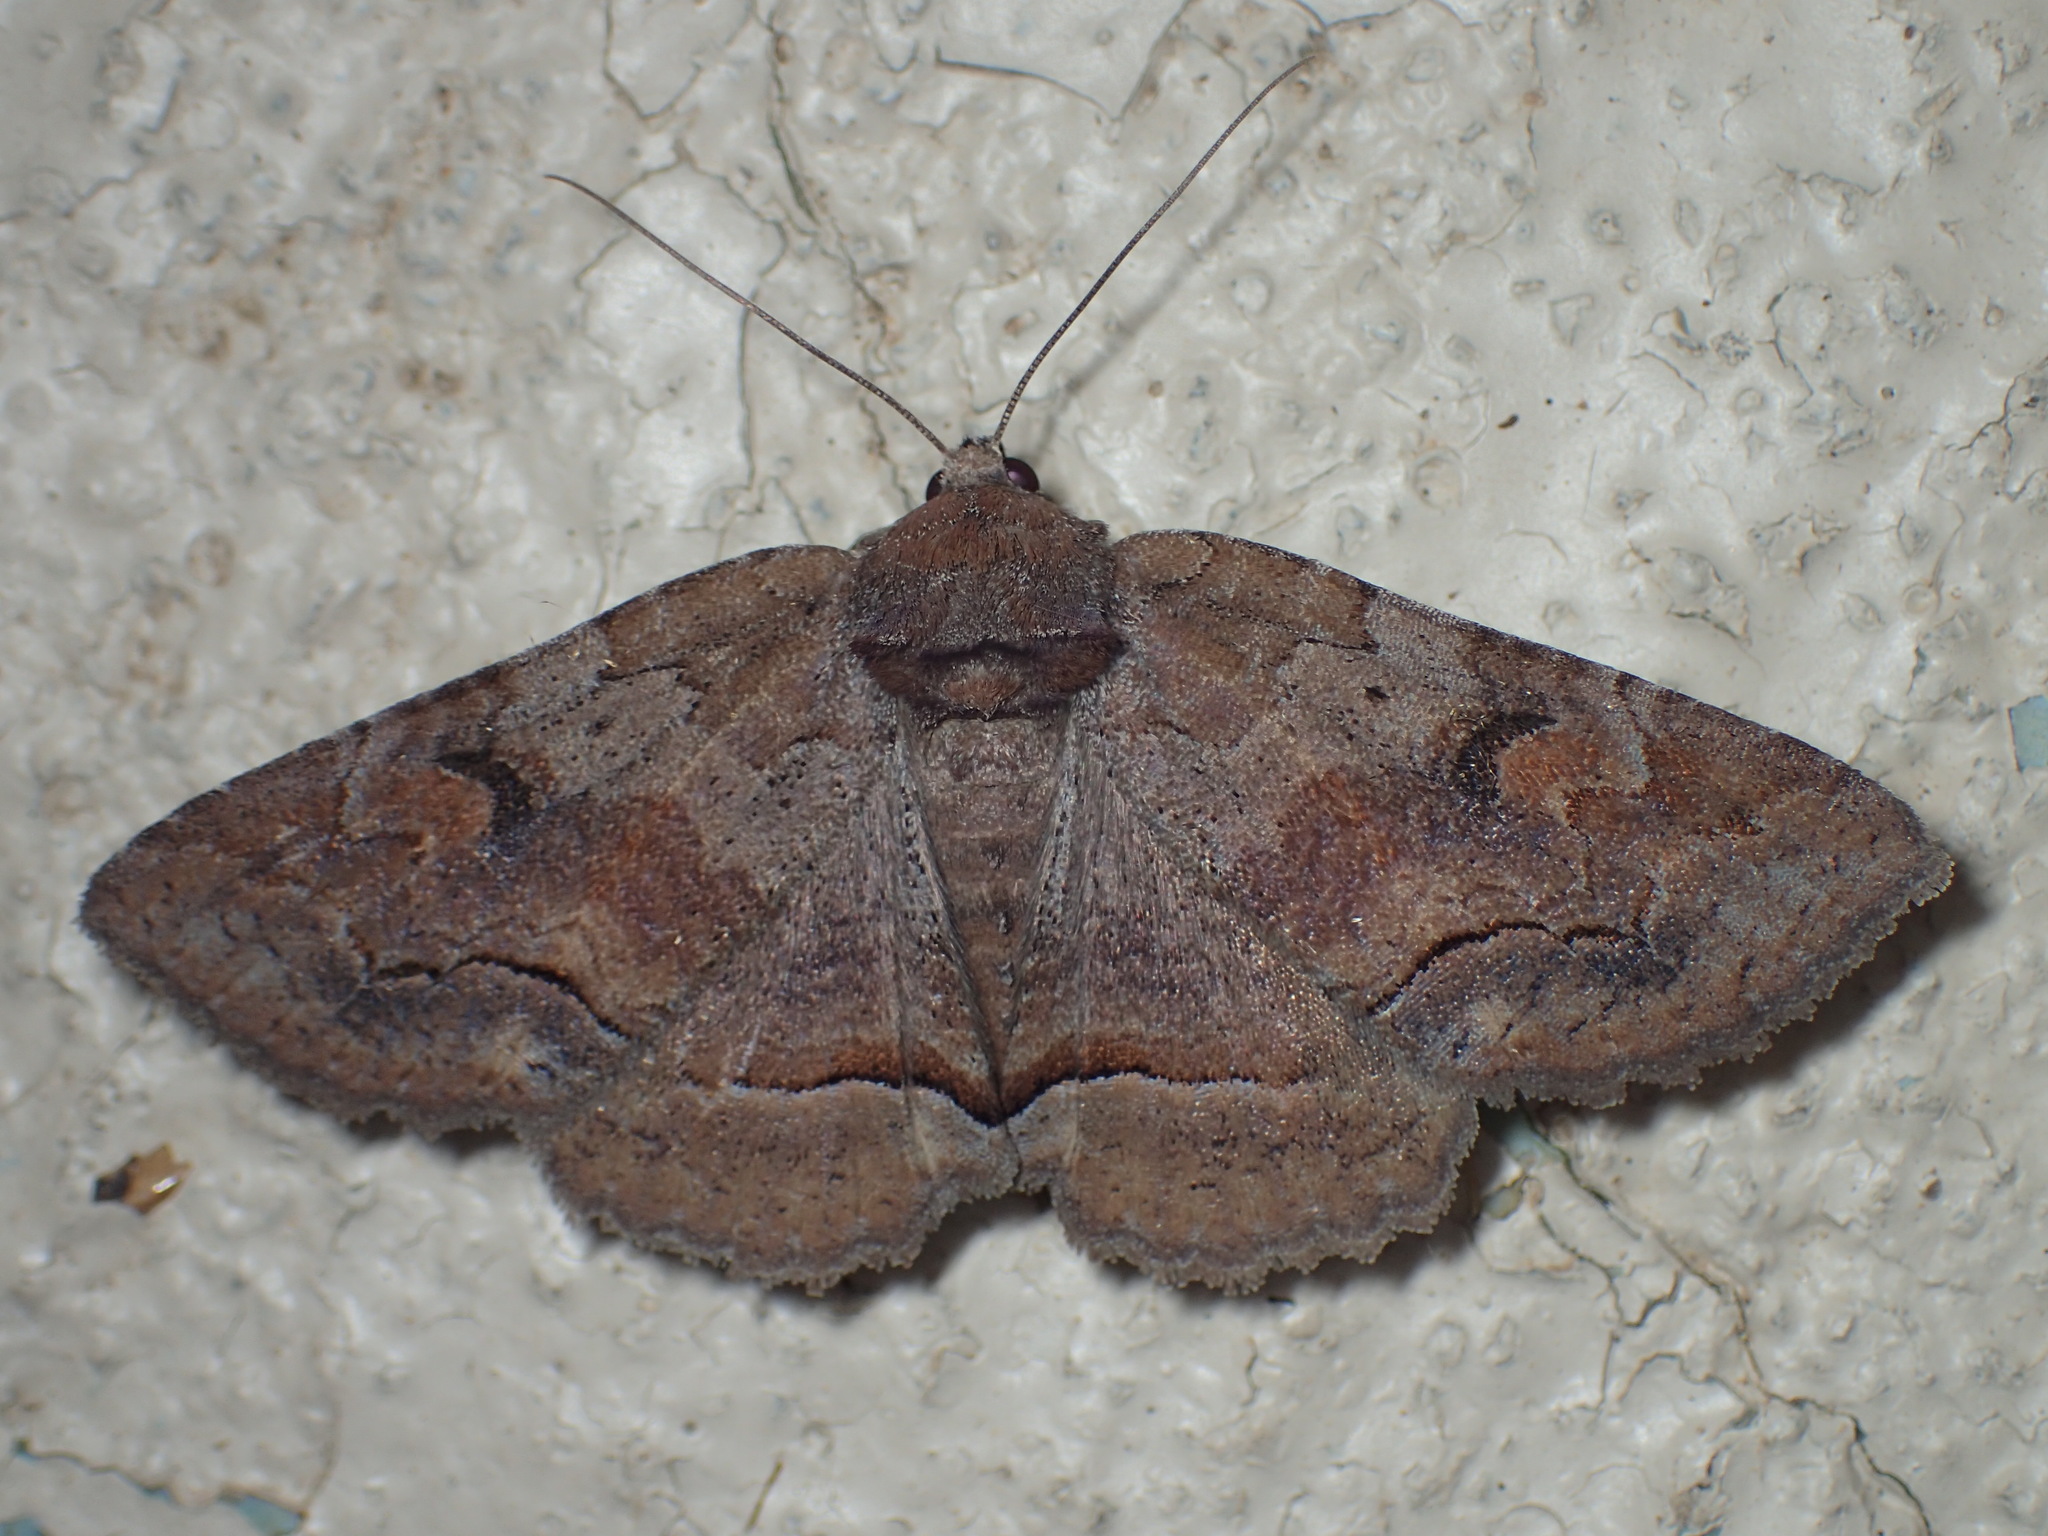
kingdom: Animalia
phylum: Arthropoda
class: Insecta
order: Lepidoptera
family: Erebidae
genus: Zale
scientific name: Zale submediana
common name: Gray spring zale
